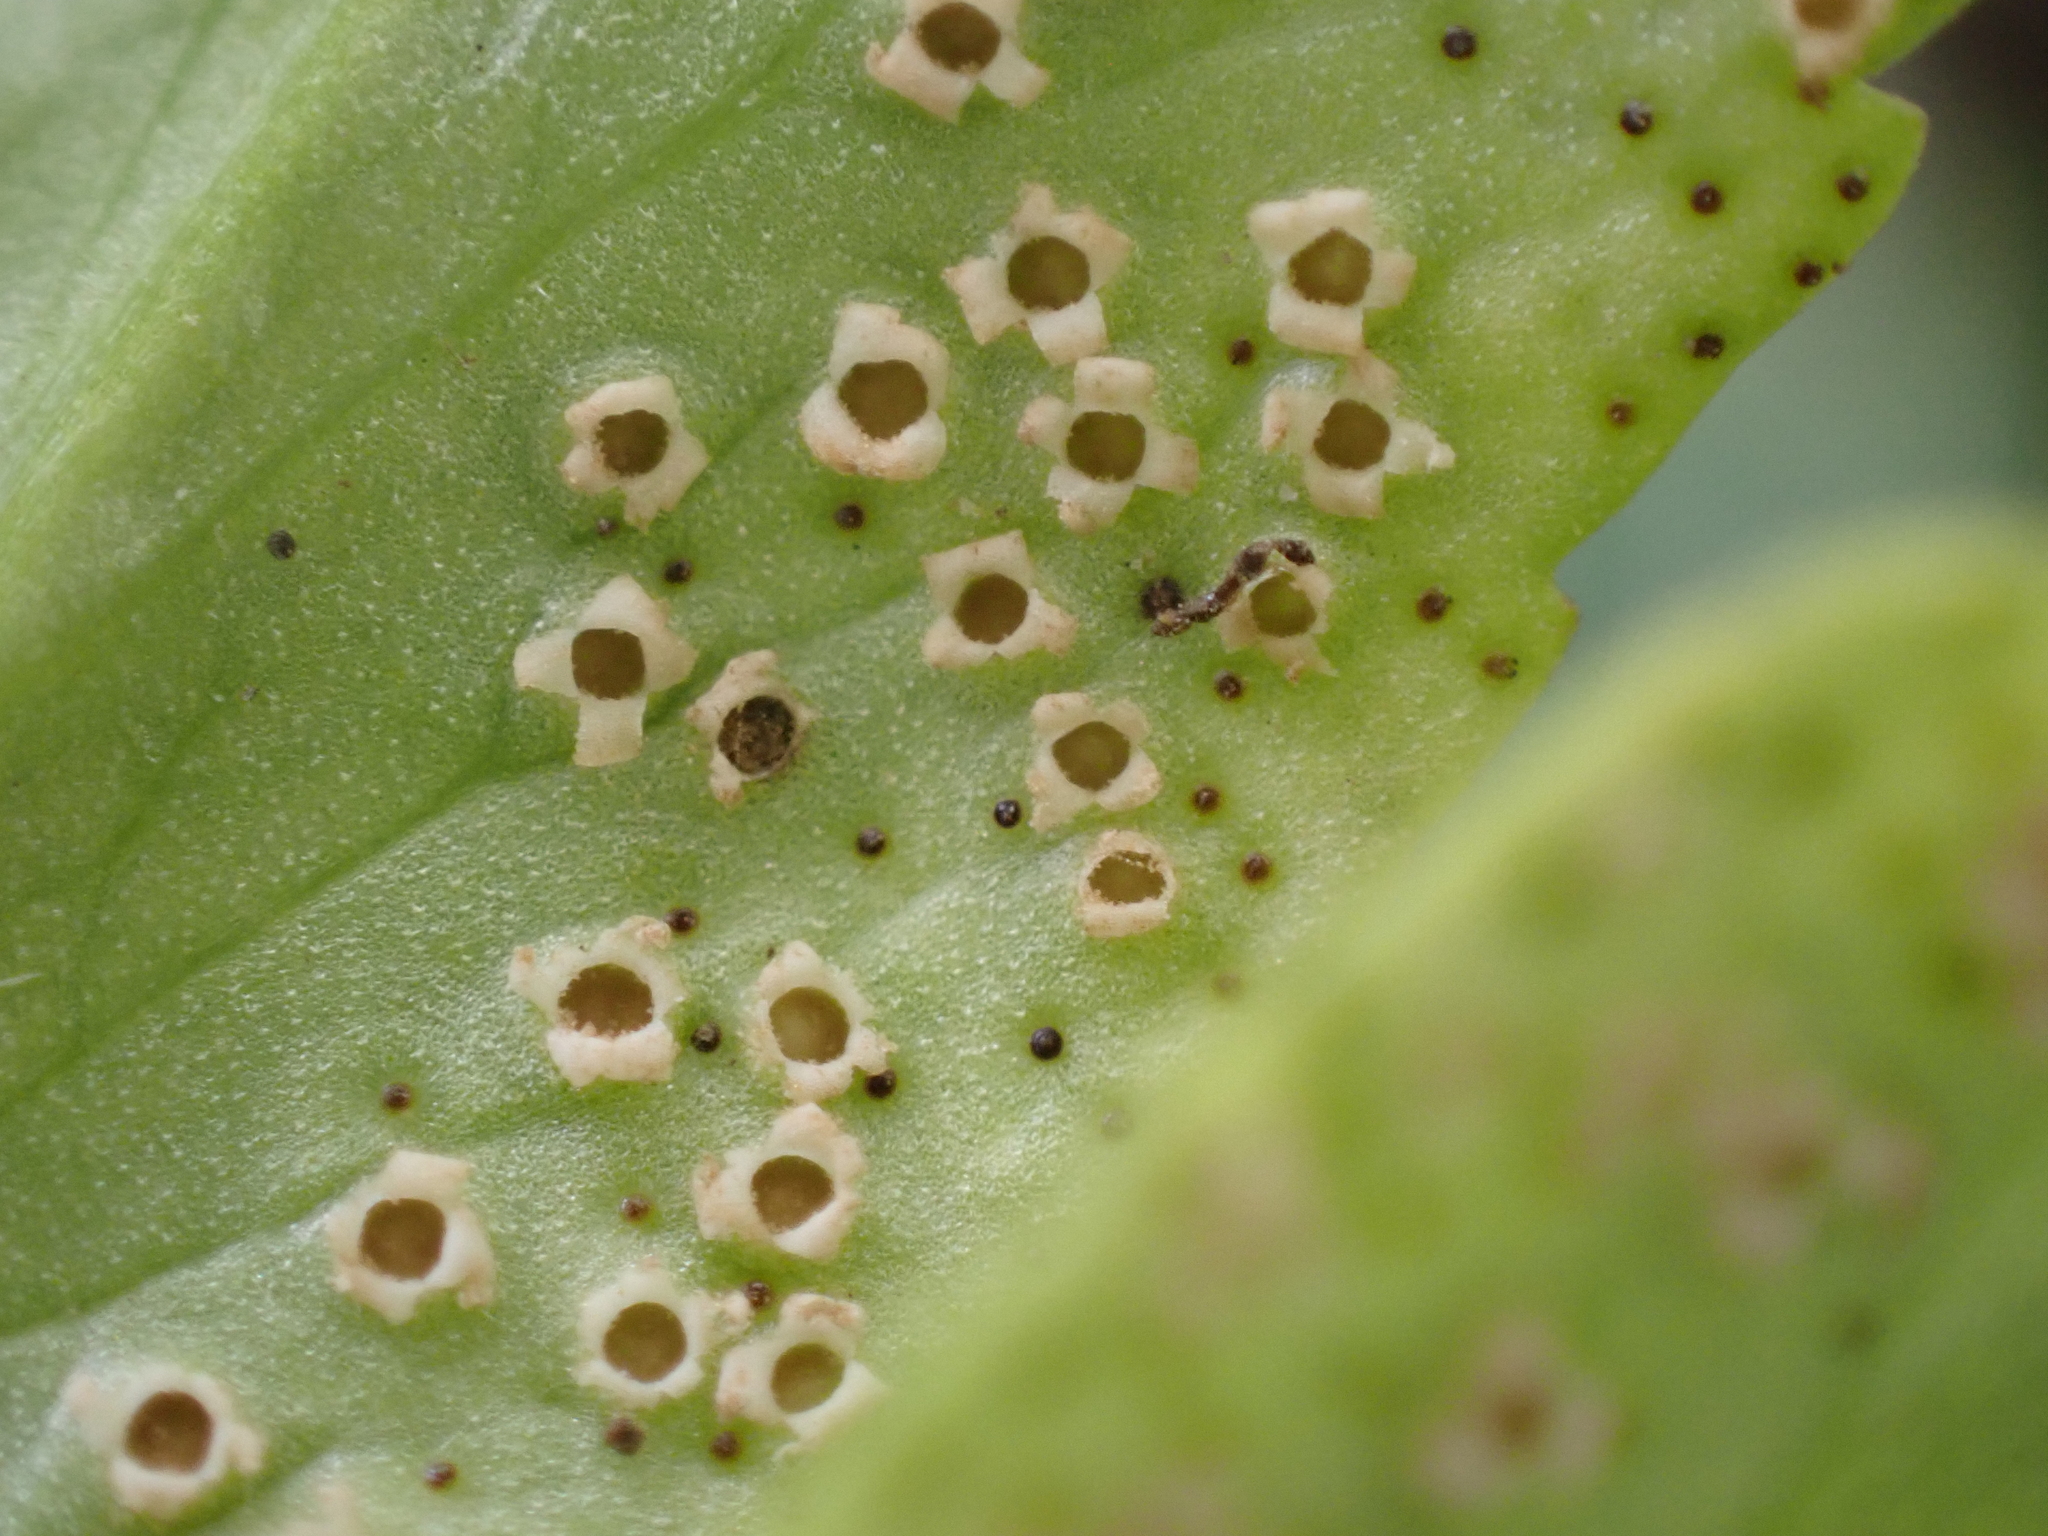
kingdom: Fungi
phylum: Basidiomycota
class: Pucciniomycetes
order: Pucciniales
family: Tranzscheliaceae
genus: Tranzschelia
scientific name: Tranzschelia pruni-spinosae
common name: Blackthorn rust
